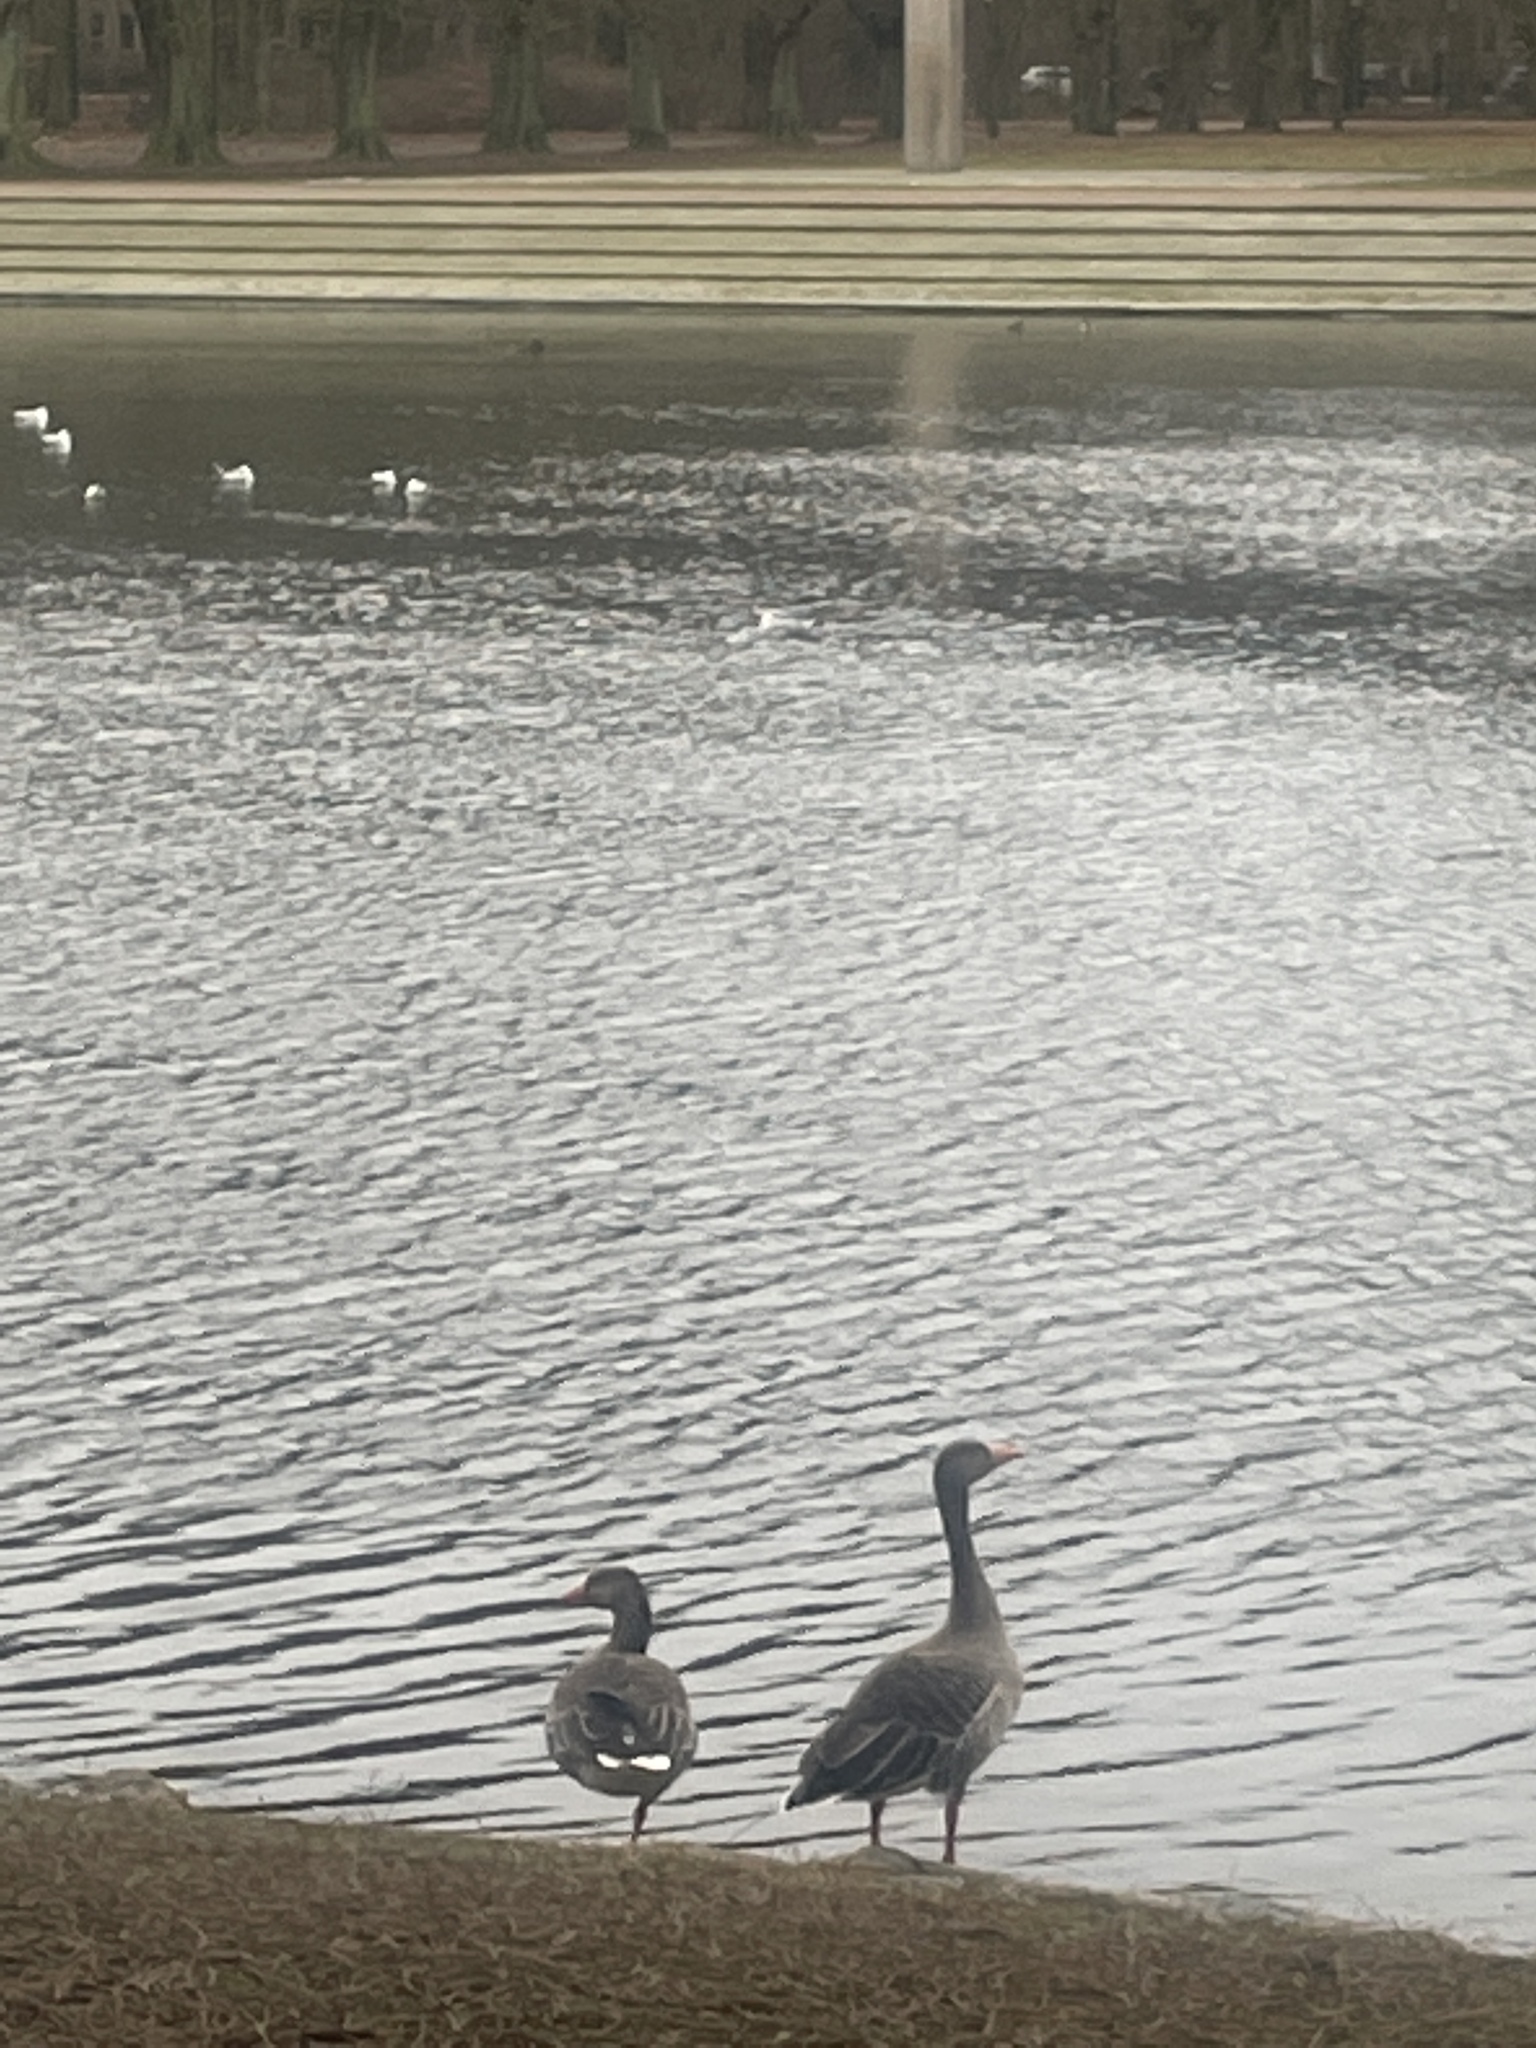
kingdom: Animalia
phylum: Chordata
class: Aves
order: Anseriformes
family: Anatidae
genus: Anser
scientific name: Anser anser
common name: Greylag goose
